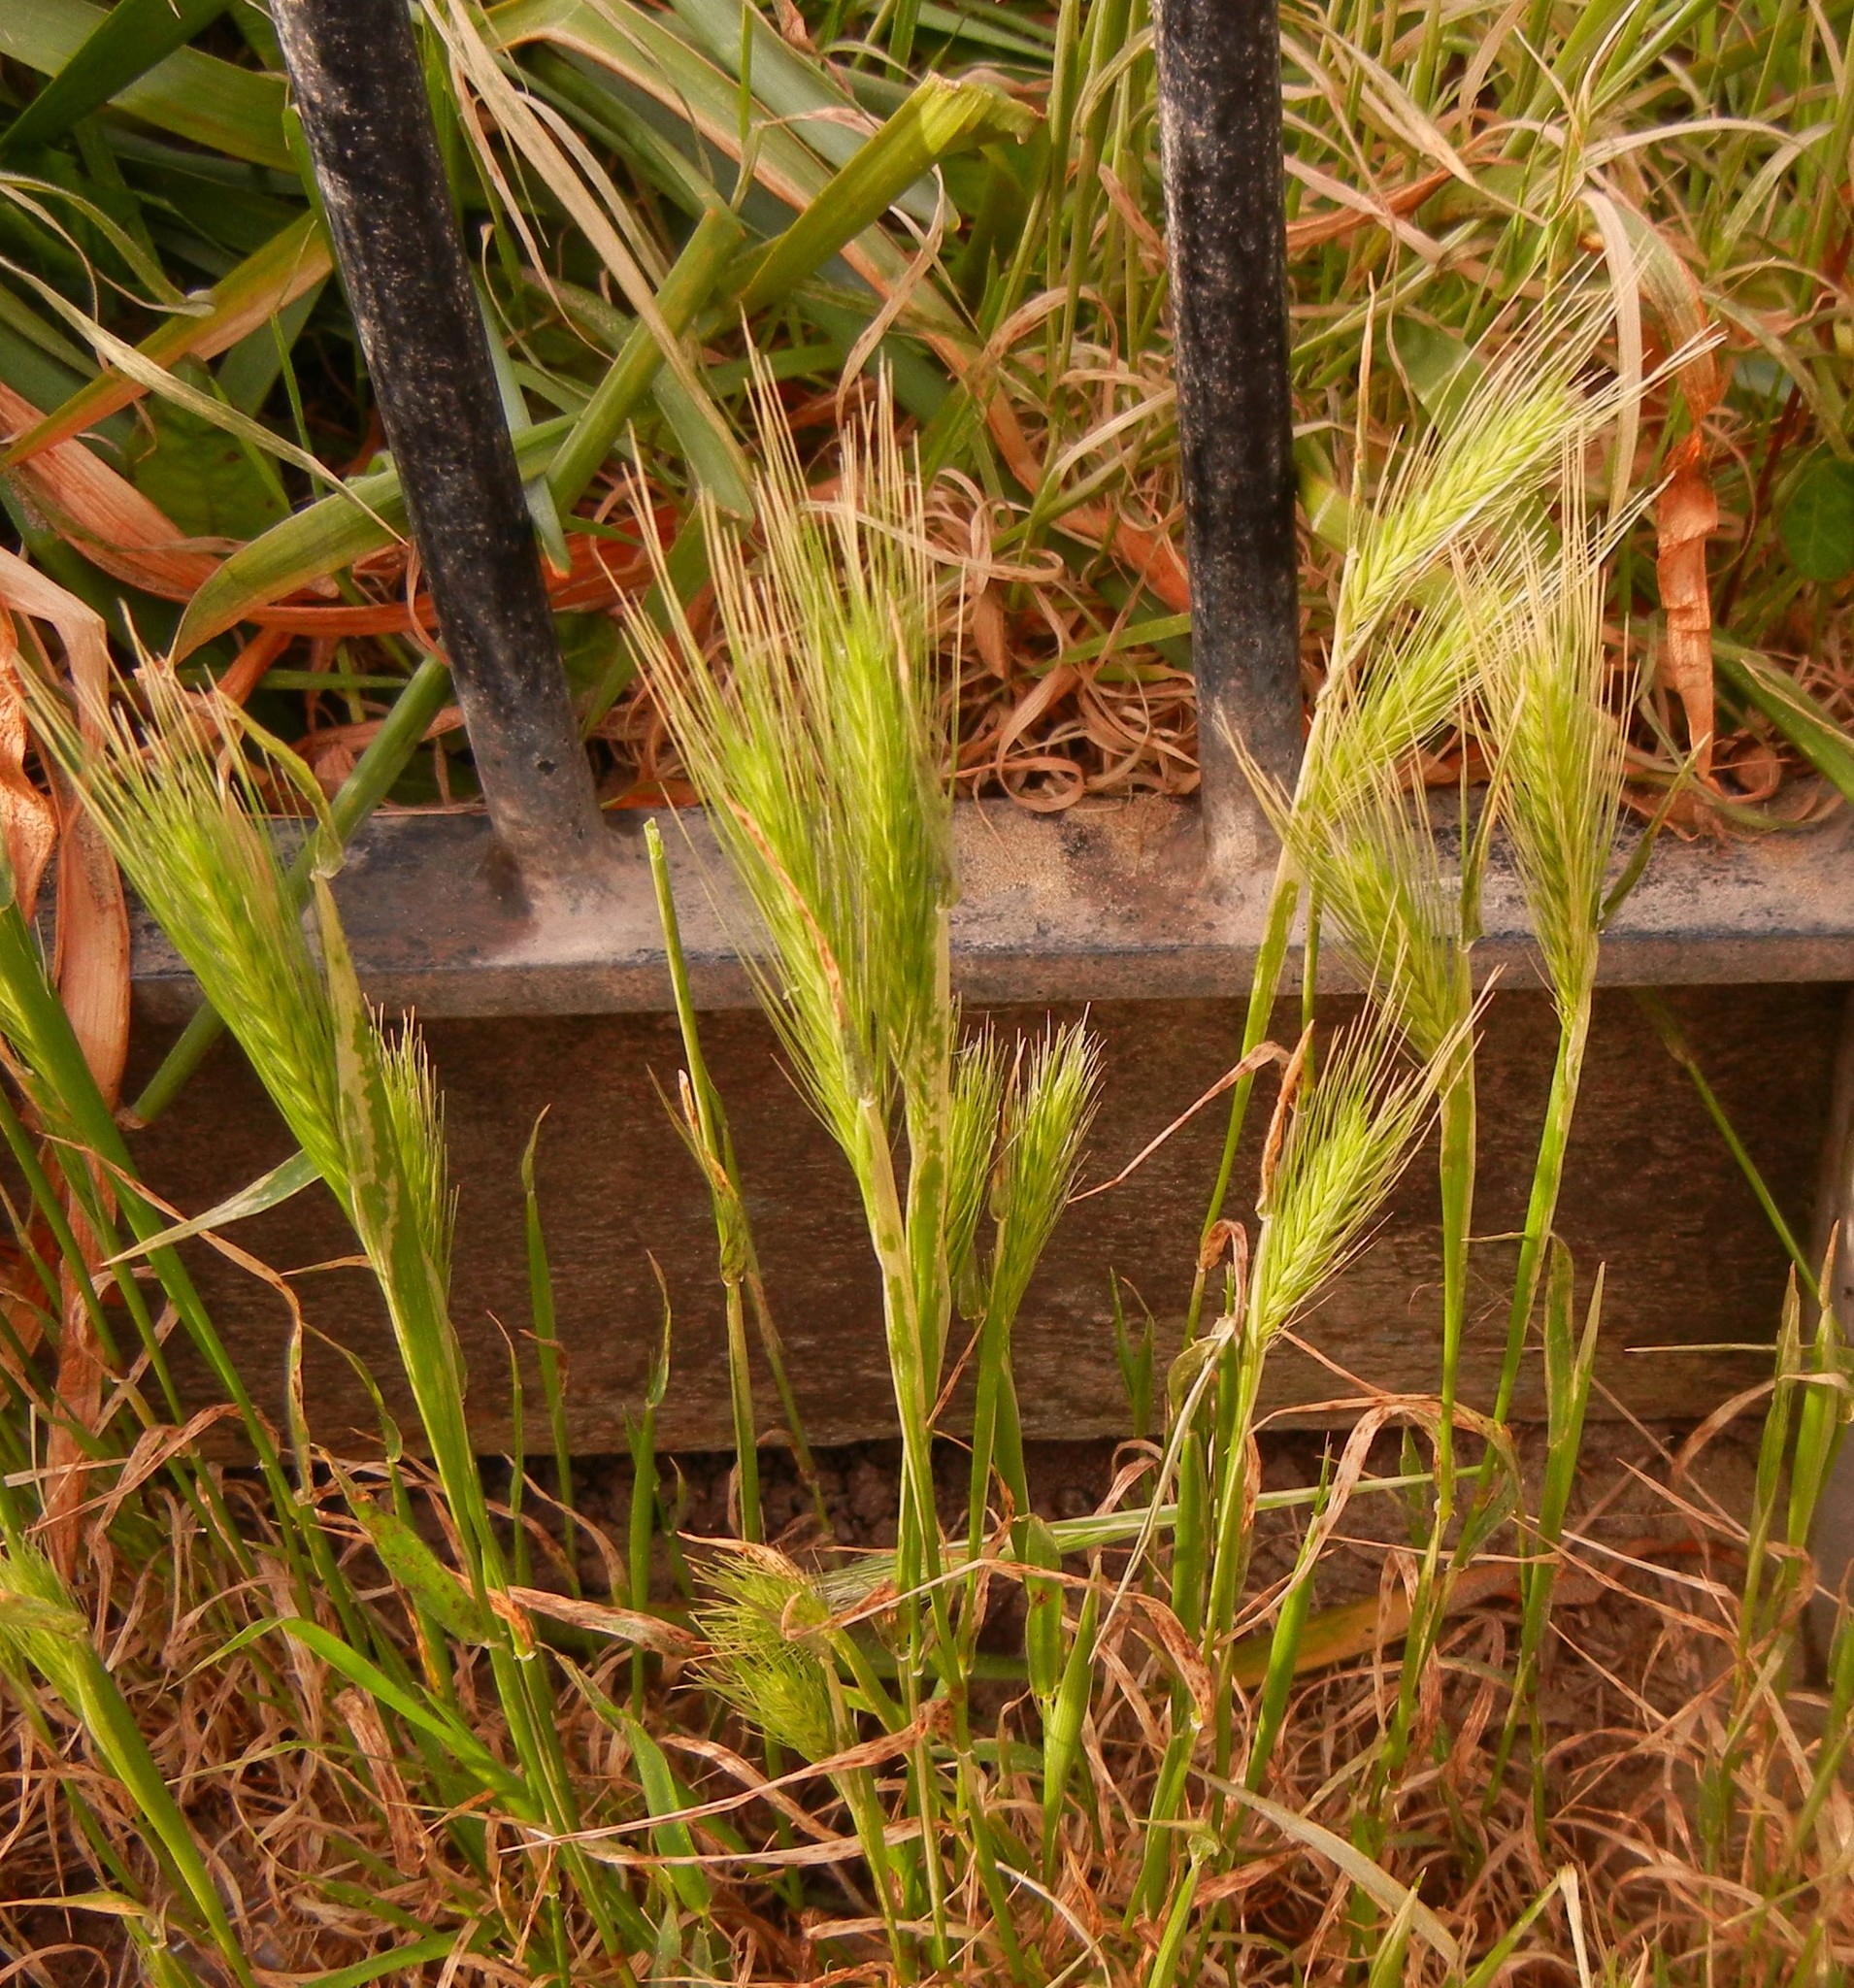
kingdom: Plantae
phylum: Tracheophyta
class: Liliopsida
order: Poales
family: Poaceae
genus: Hordeum
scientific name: Hordeum murinum
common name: Wall barley
